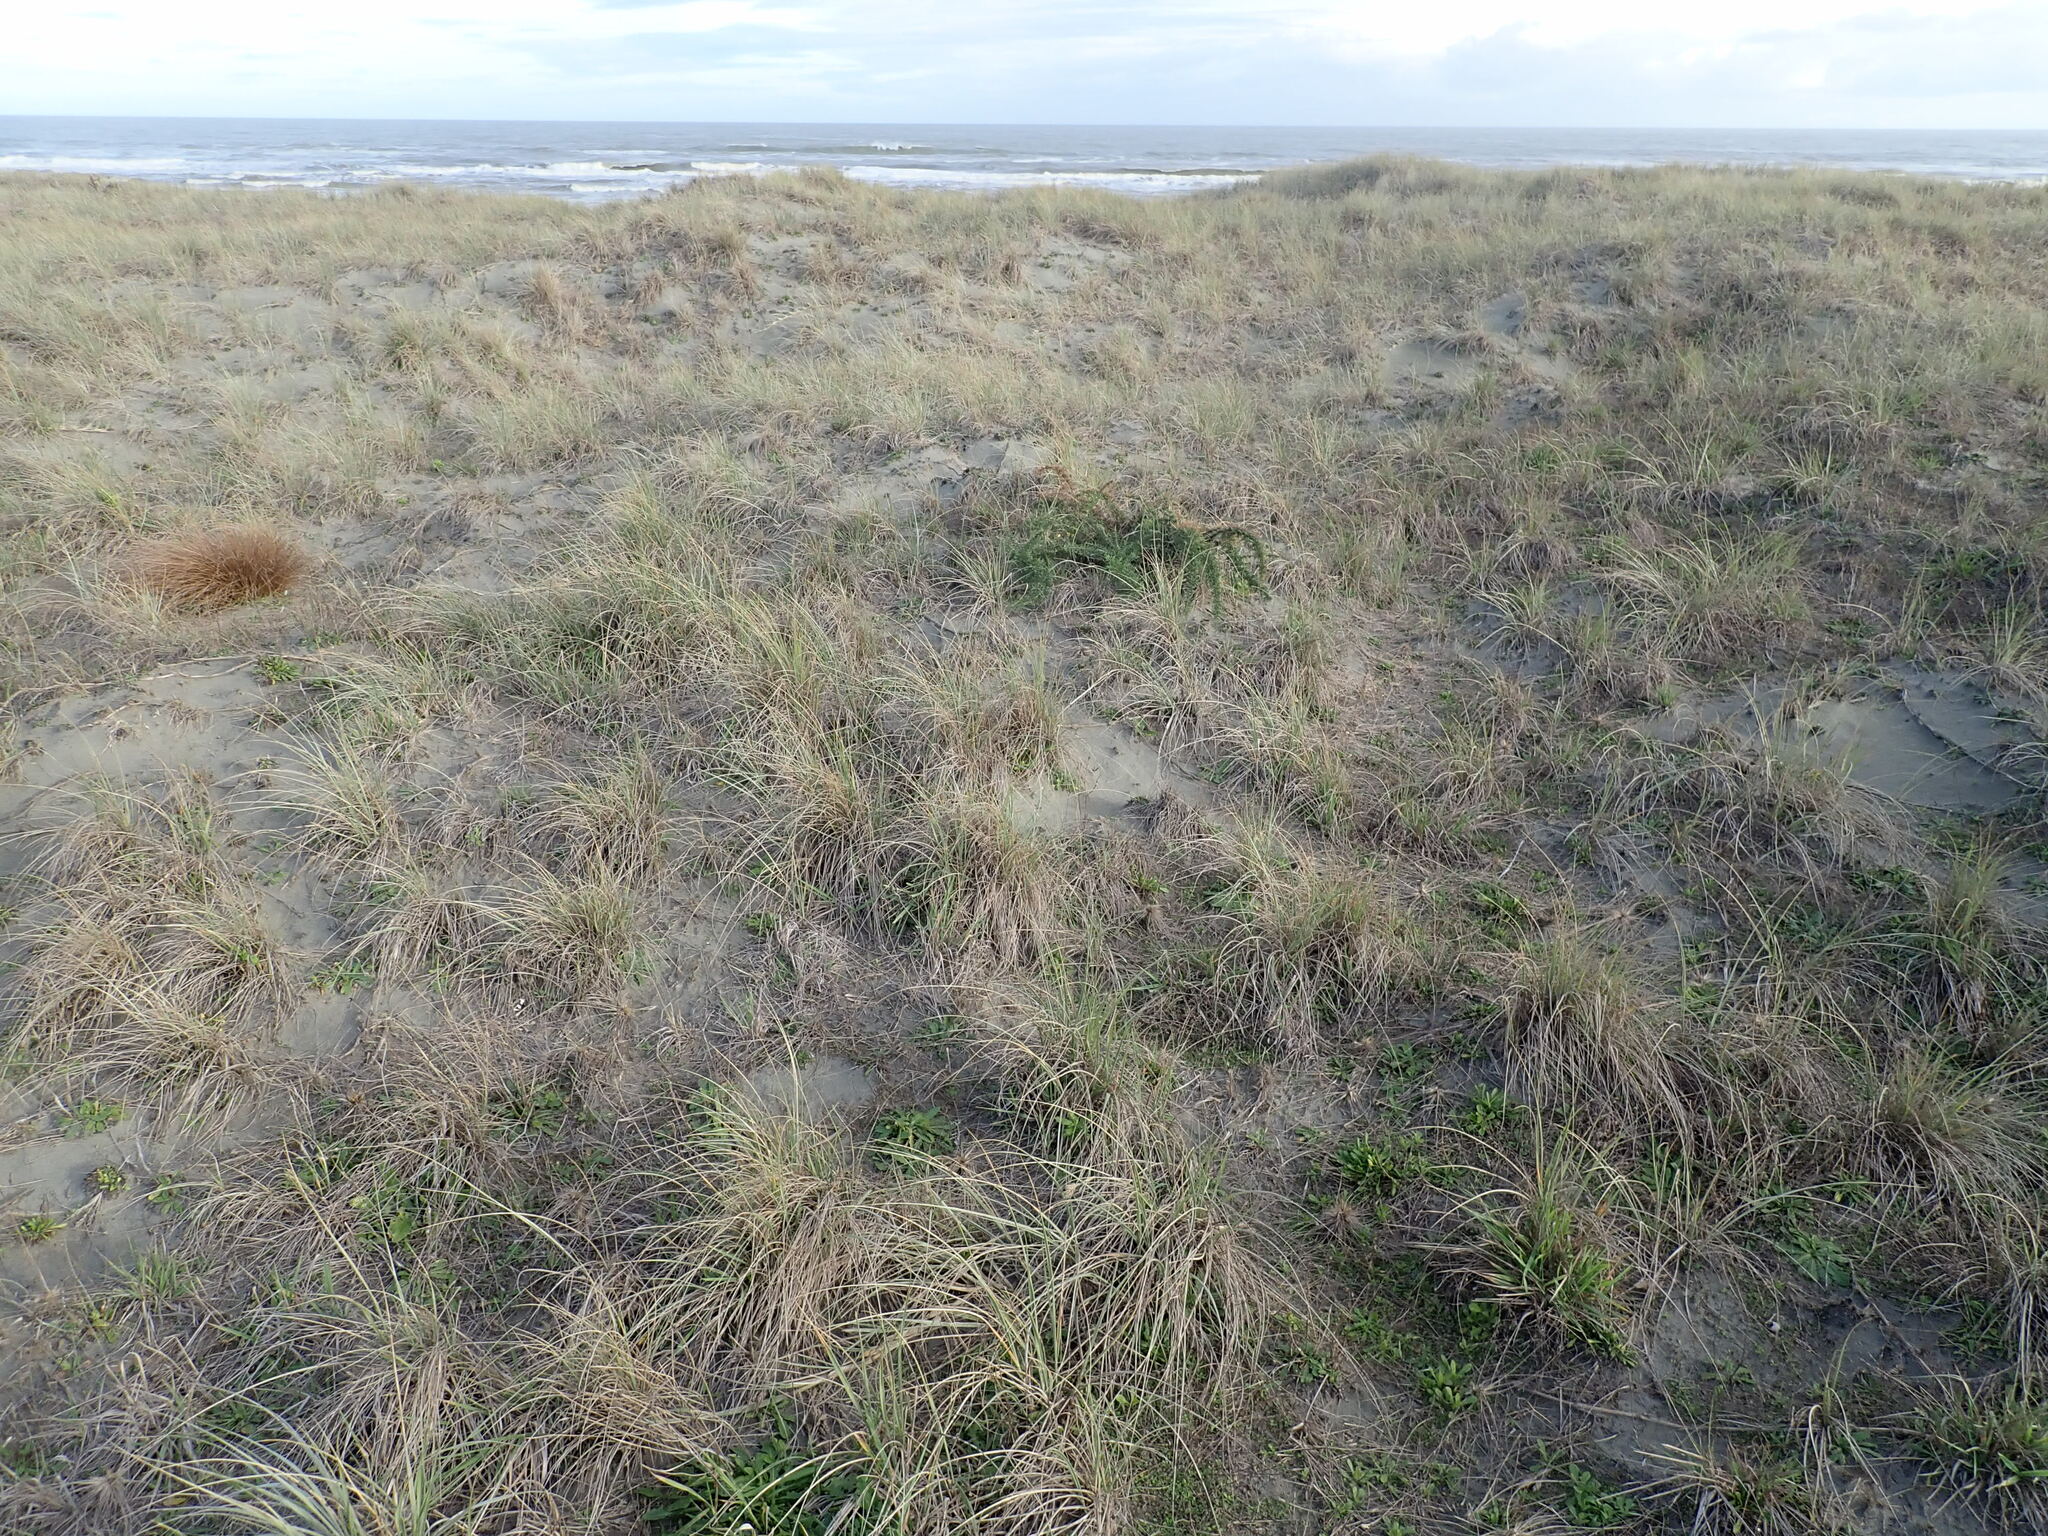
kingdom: Plantae
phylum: Tracheophyta
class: Magnoliopsida
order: Fabales
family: Fabaceae
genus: Ulex
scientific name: Ulex europaeus
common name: Common gorse
